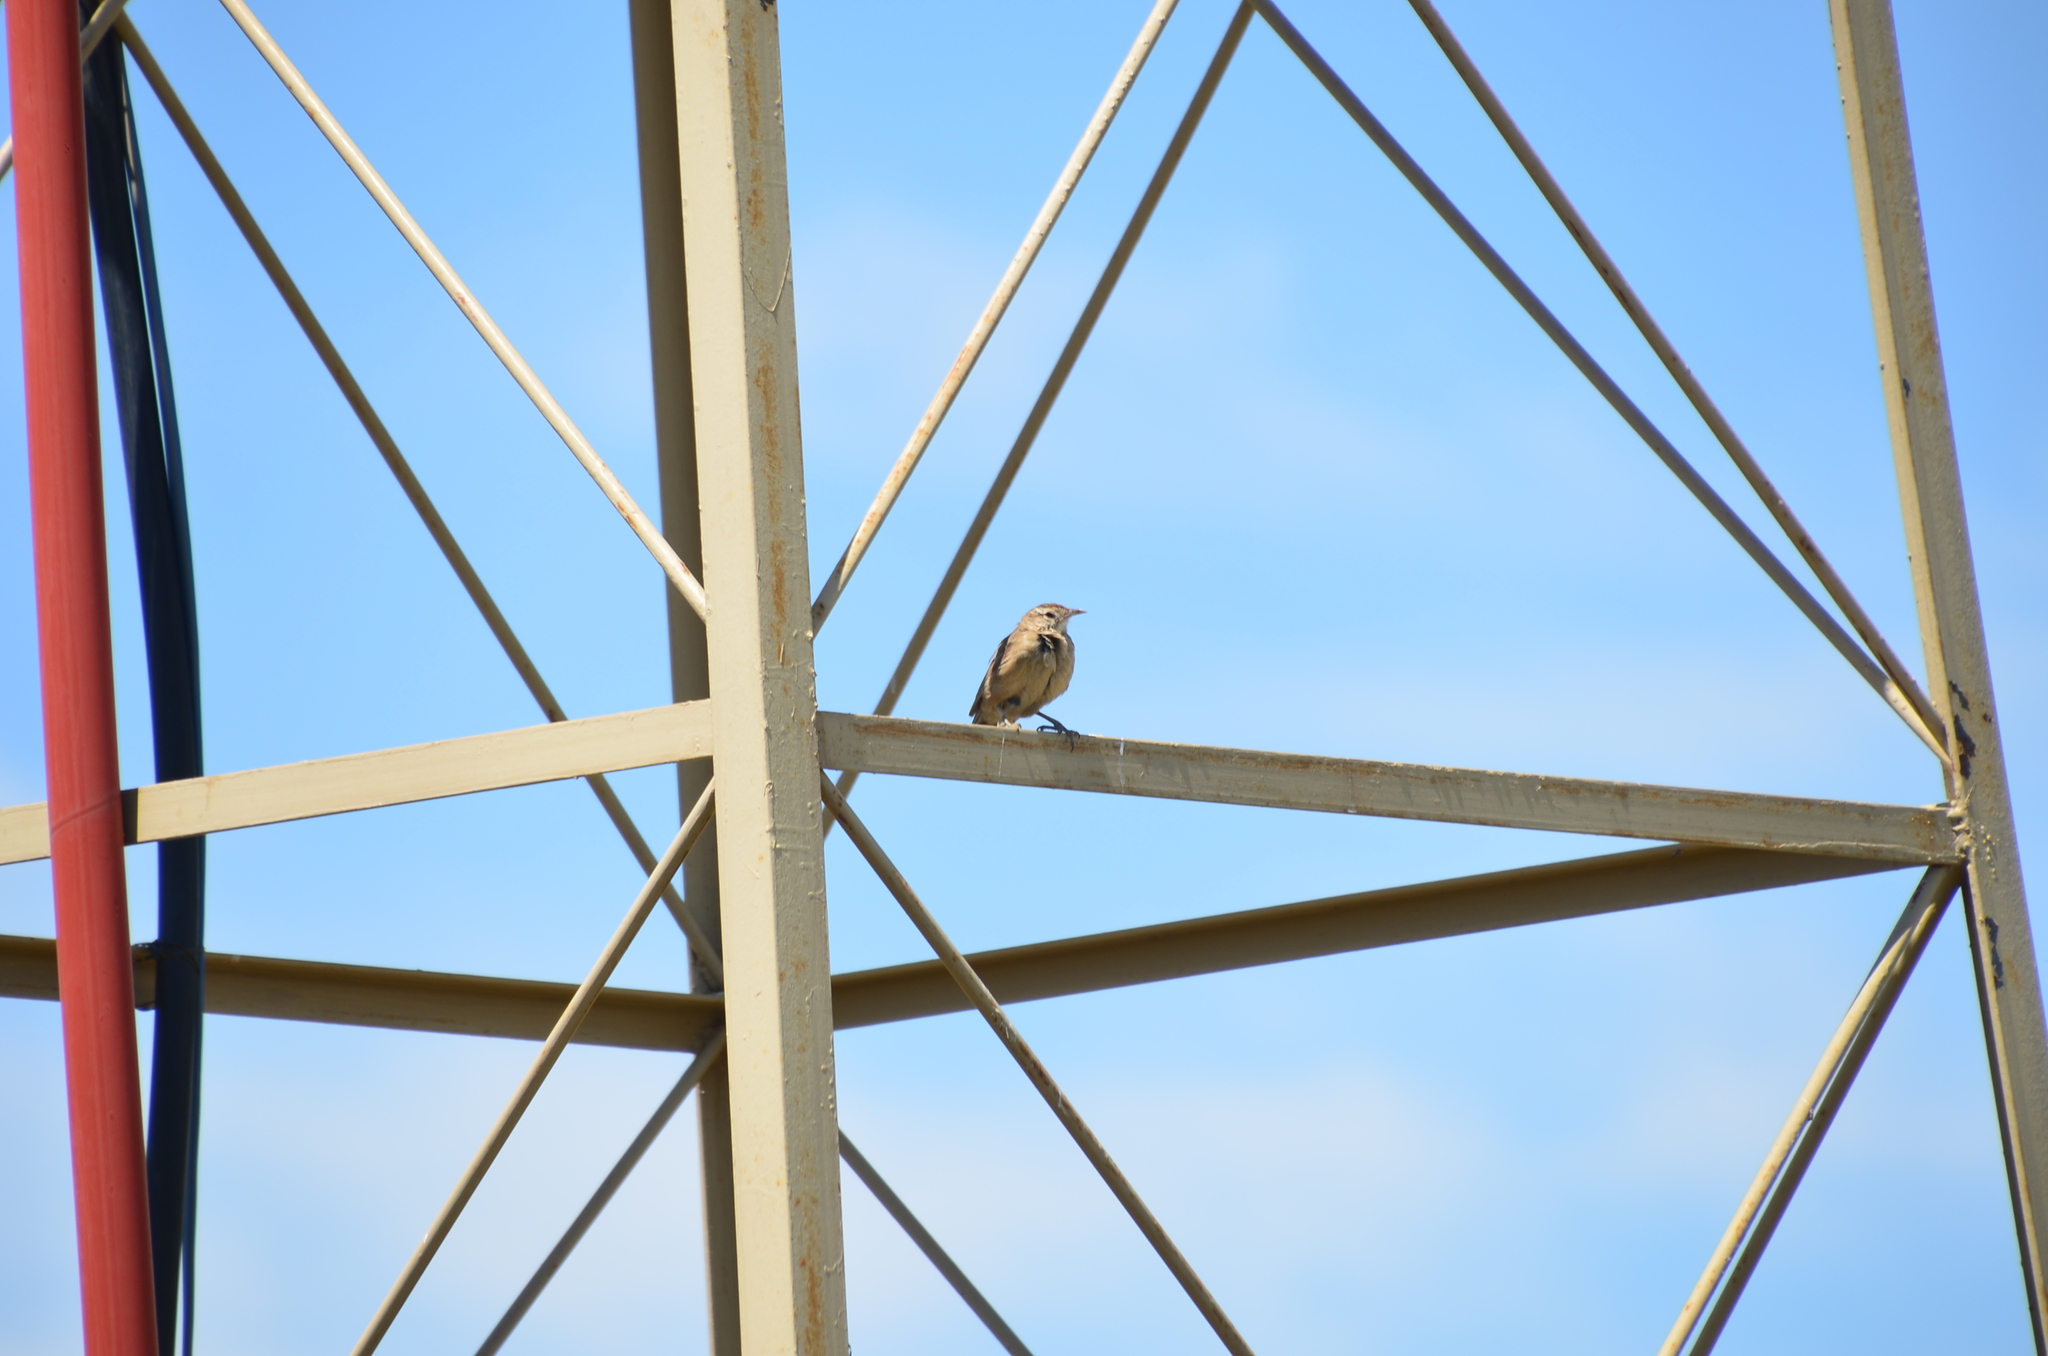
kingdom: Animalia
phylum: Chordata
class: Aves
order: Passeriformes
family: Furnariidae
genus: Anumbius
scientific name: Anumbius annumbi
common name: Firewood-gatherer
